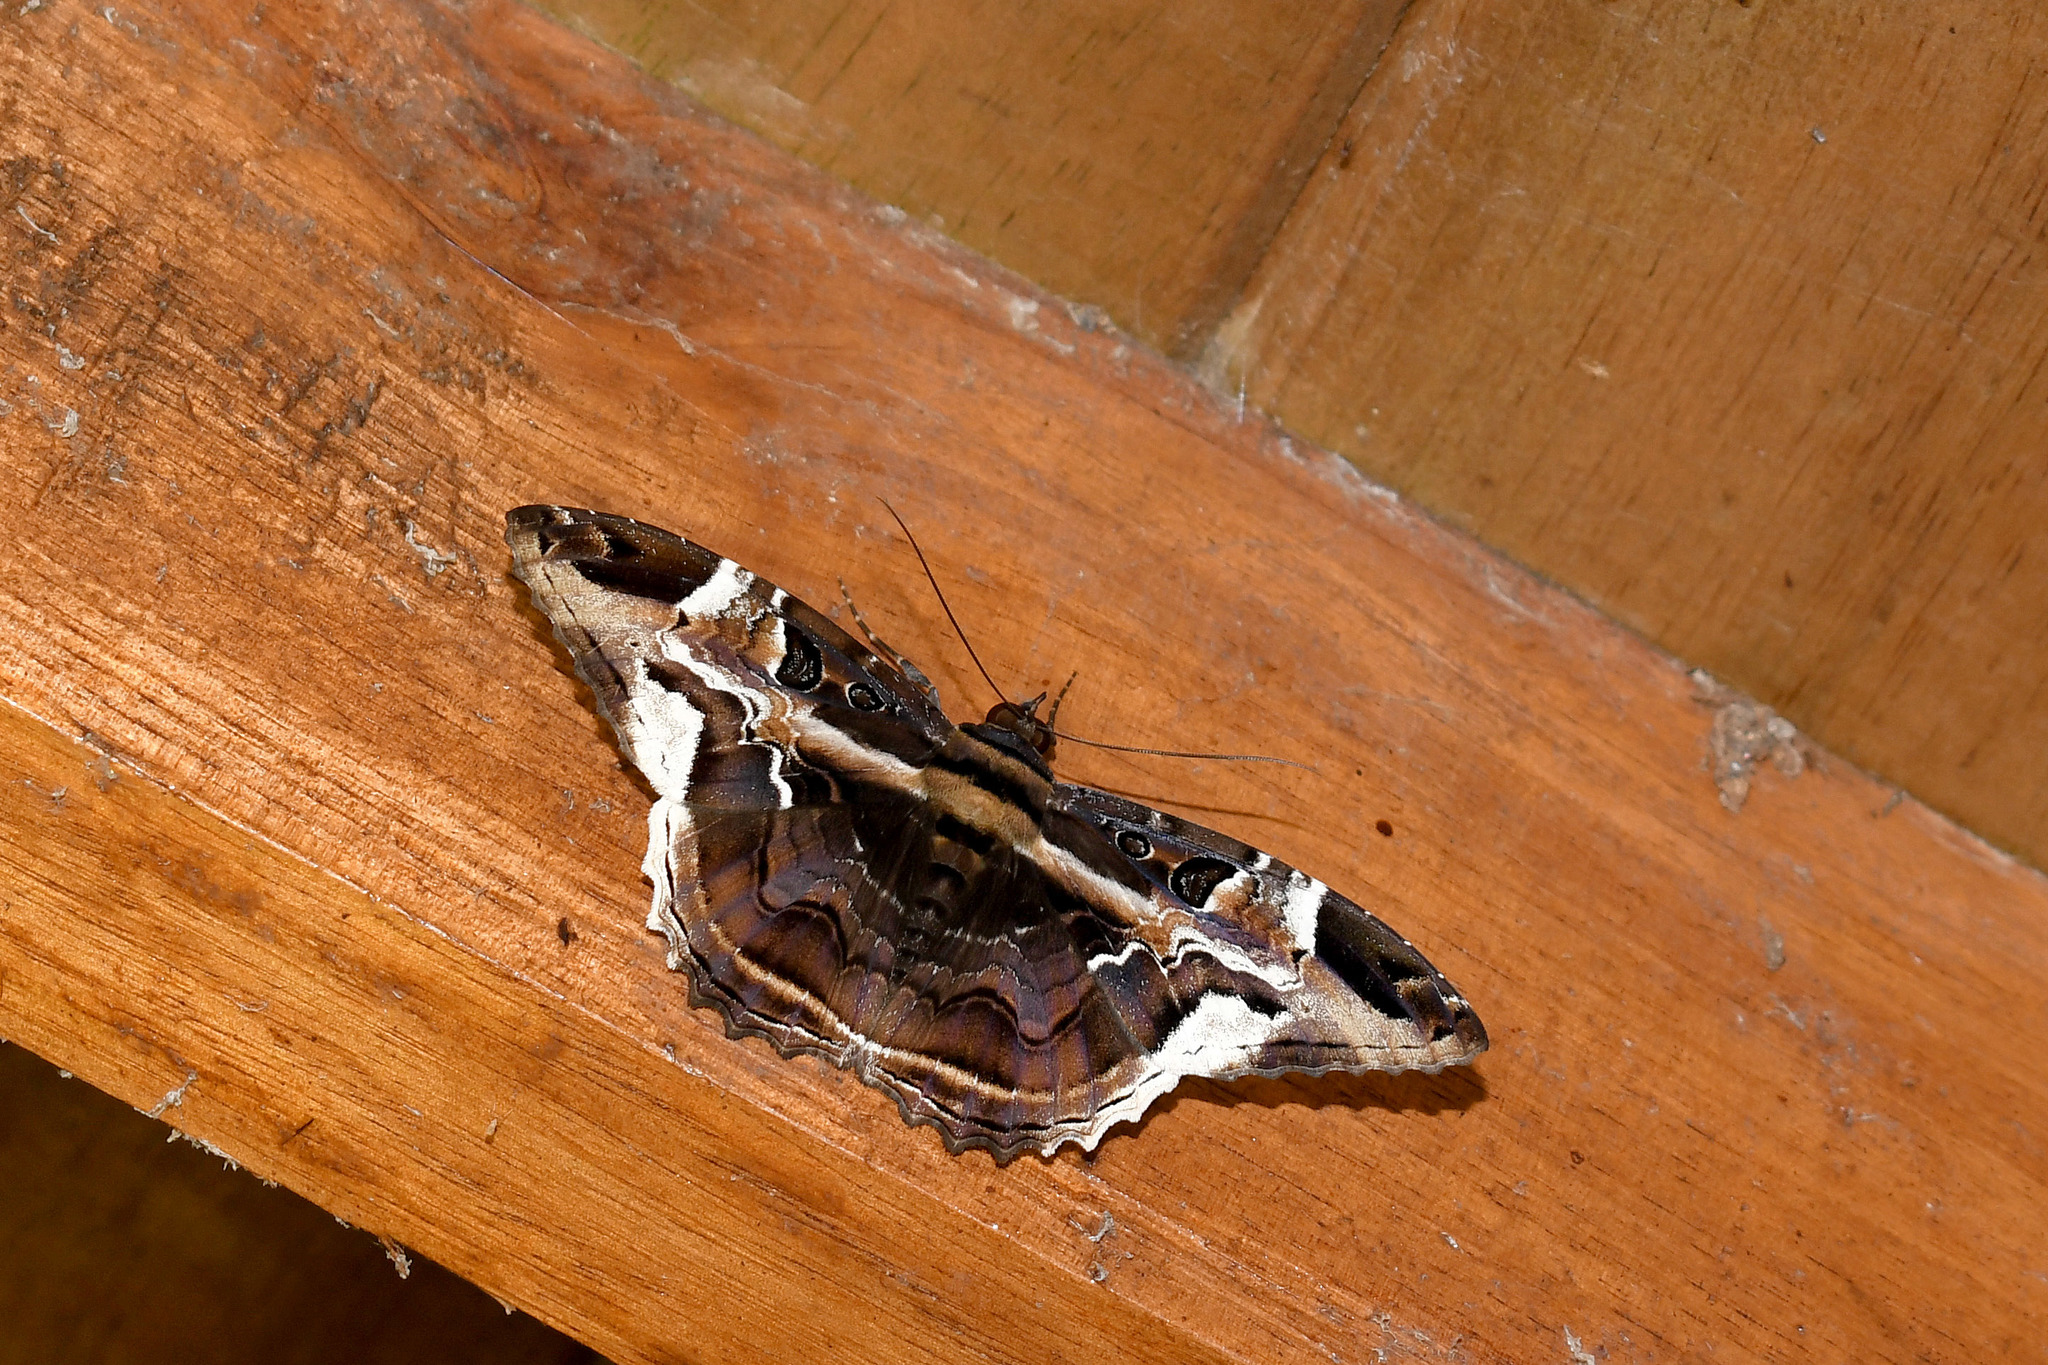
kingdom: Animalia
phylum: Arthropoda
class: Insecta
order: Lepidoptera
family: Erebidae
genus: Feigeria
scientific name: Feigeria herilia
